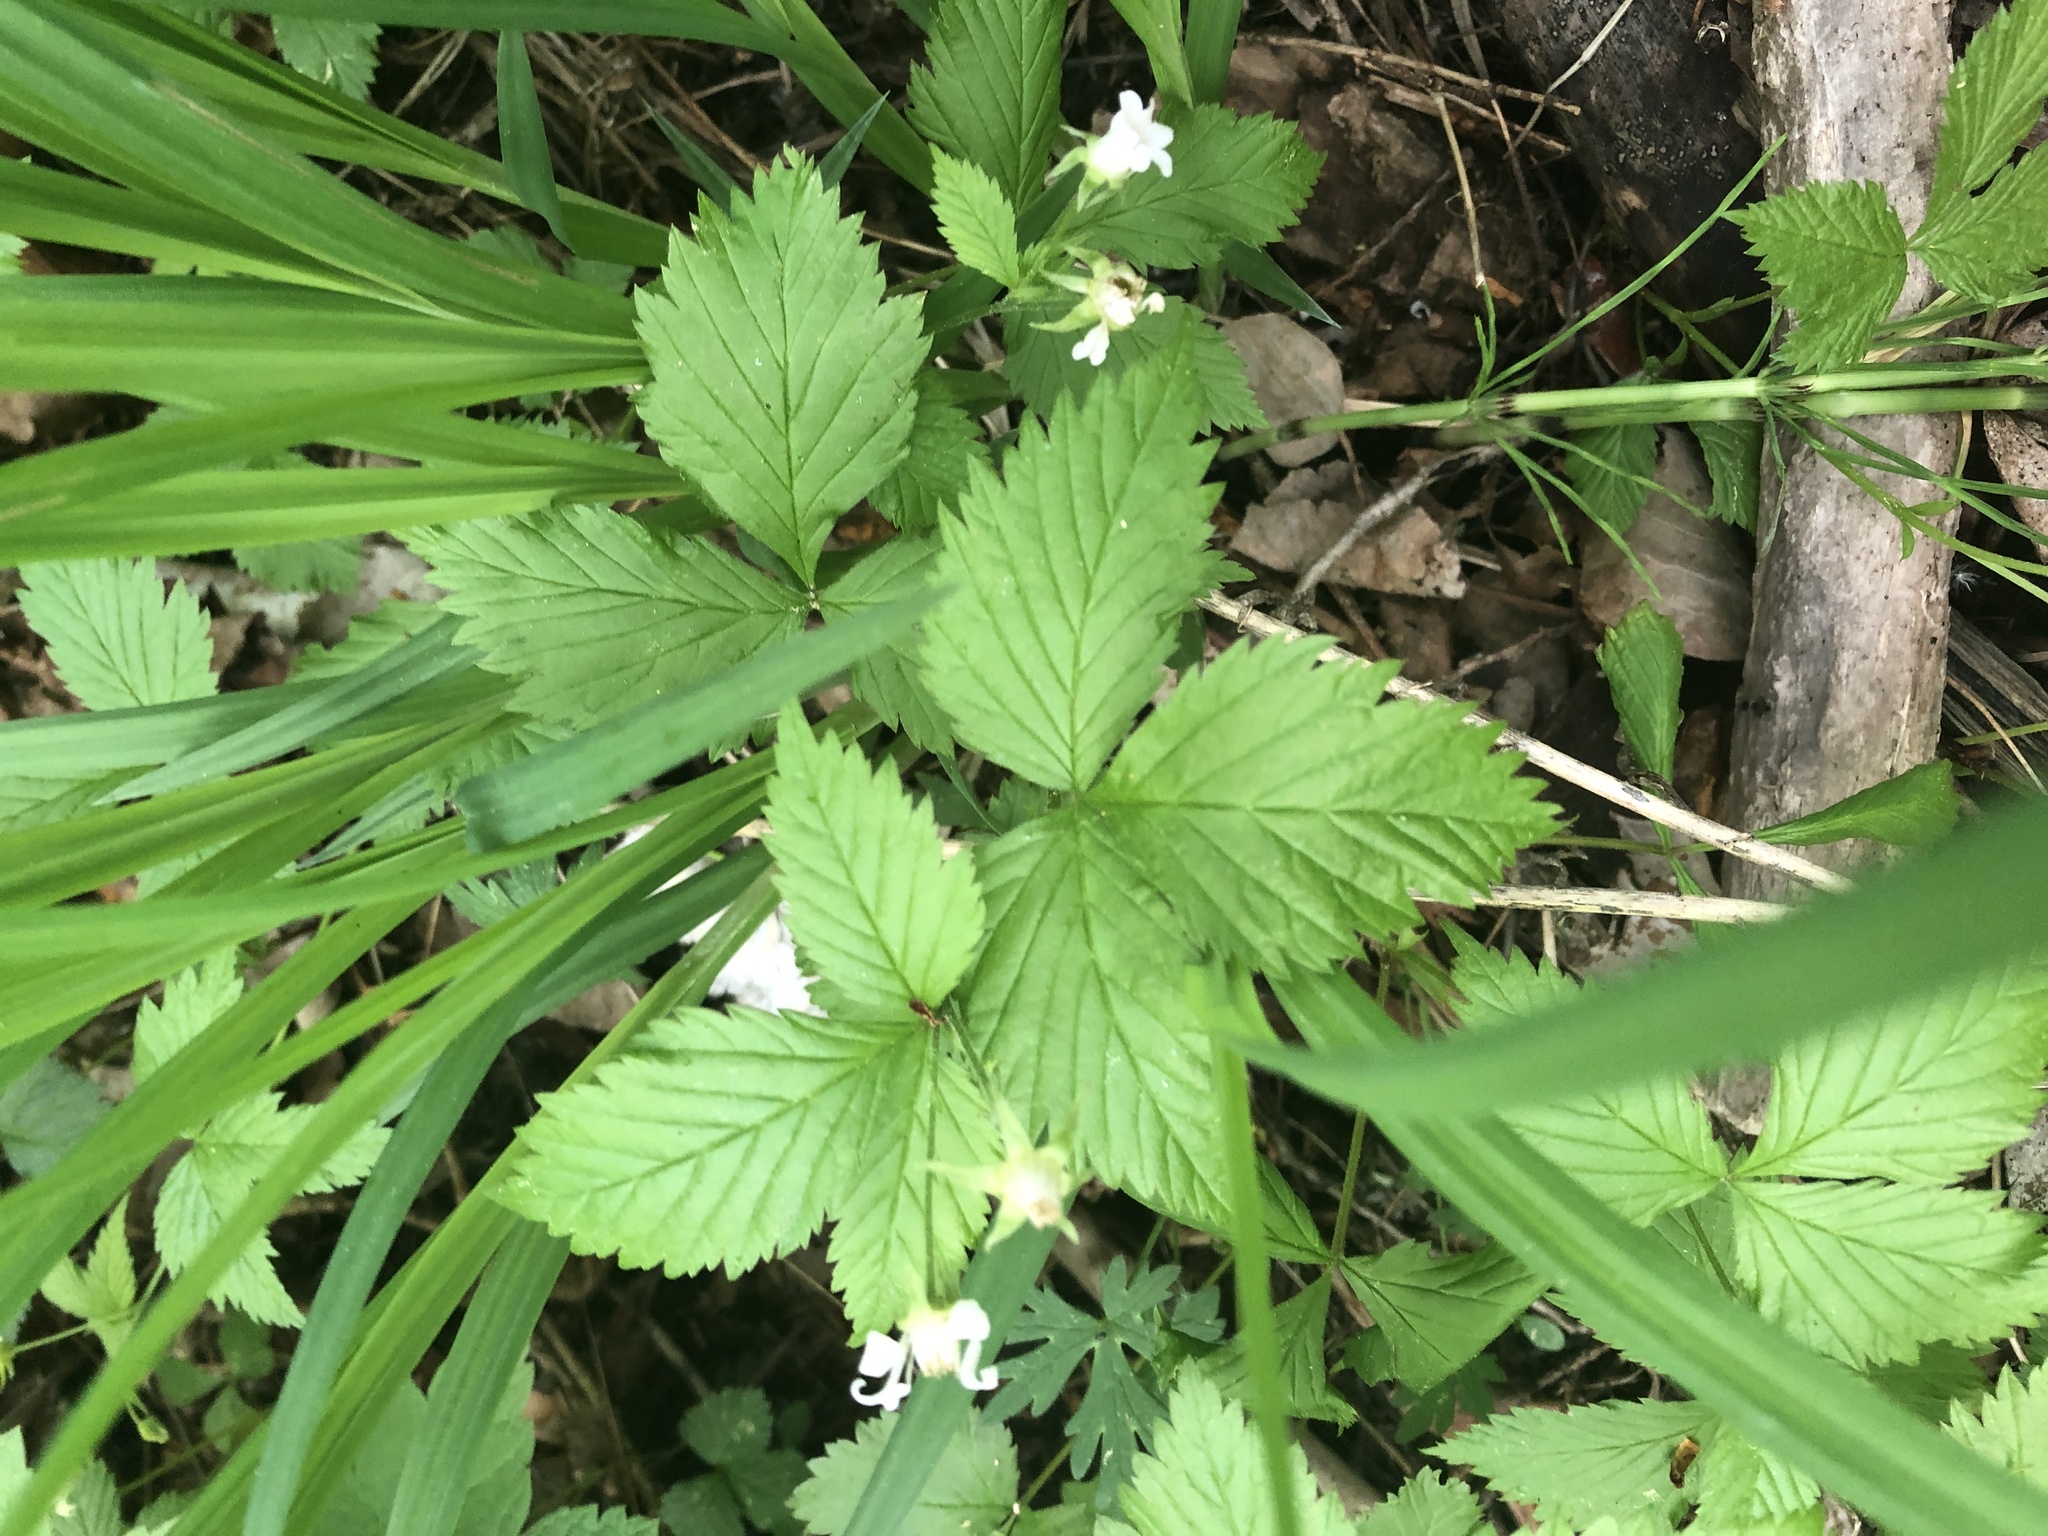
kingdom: Plantae
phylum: Tracheophyta
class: Magnoliopsida
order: Rosales
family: Rosaceae
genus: Rubus
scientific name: Rubus pubescens
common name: Dwarf raspberry
